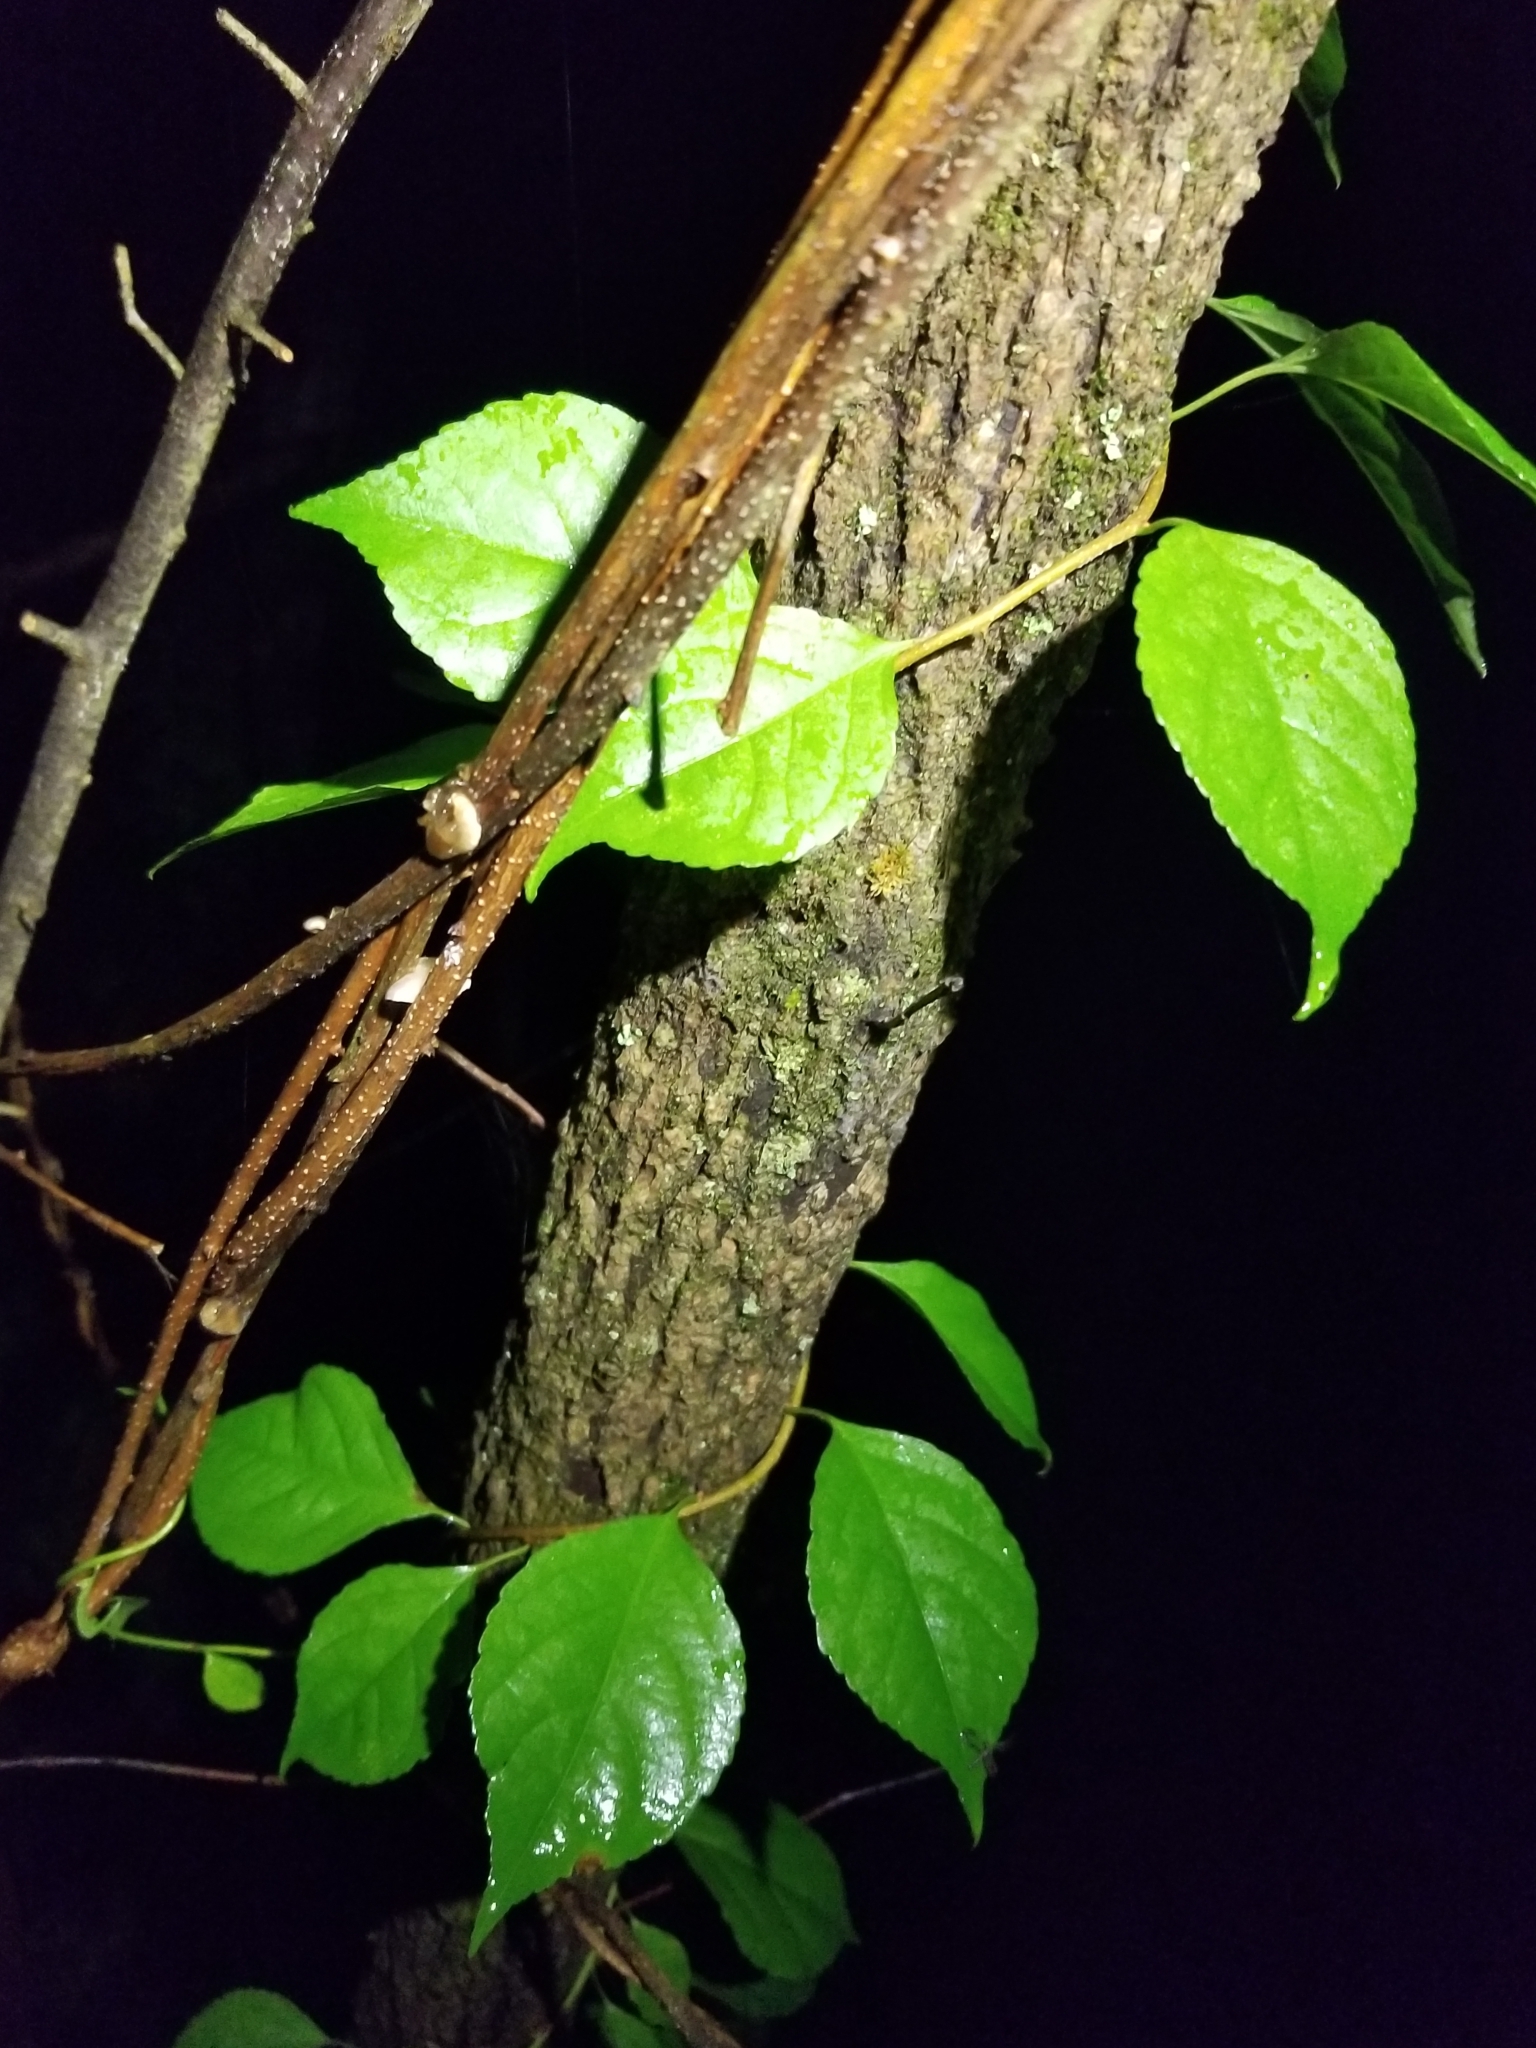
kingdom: Plantae
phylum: Tracheophyta
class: Magnoliopsida
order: Celastrales
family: Celastraceae
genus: Celastrus
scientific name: Celastrus orbiculatus
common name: Oriental bittersweet
